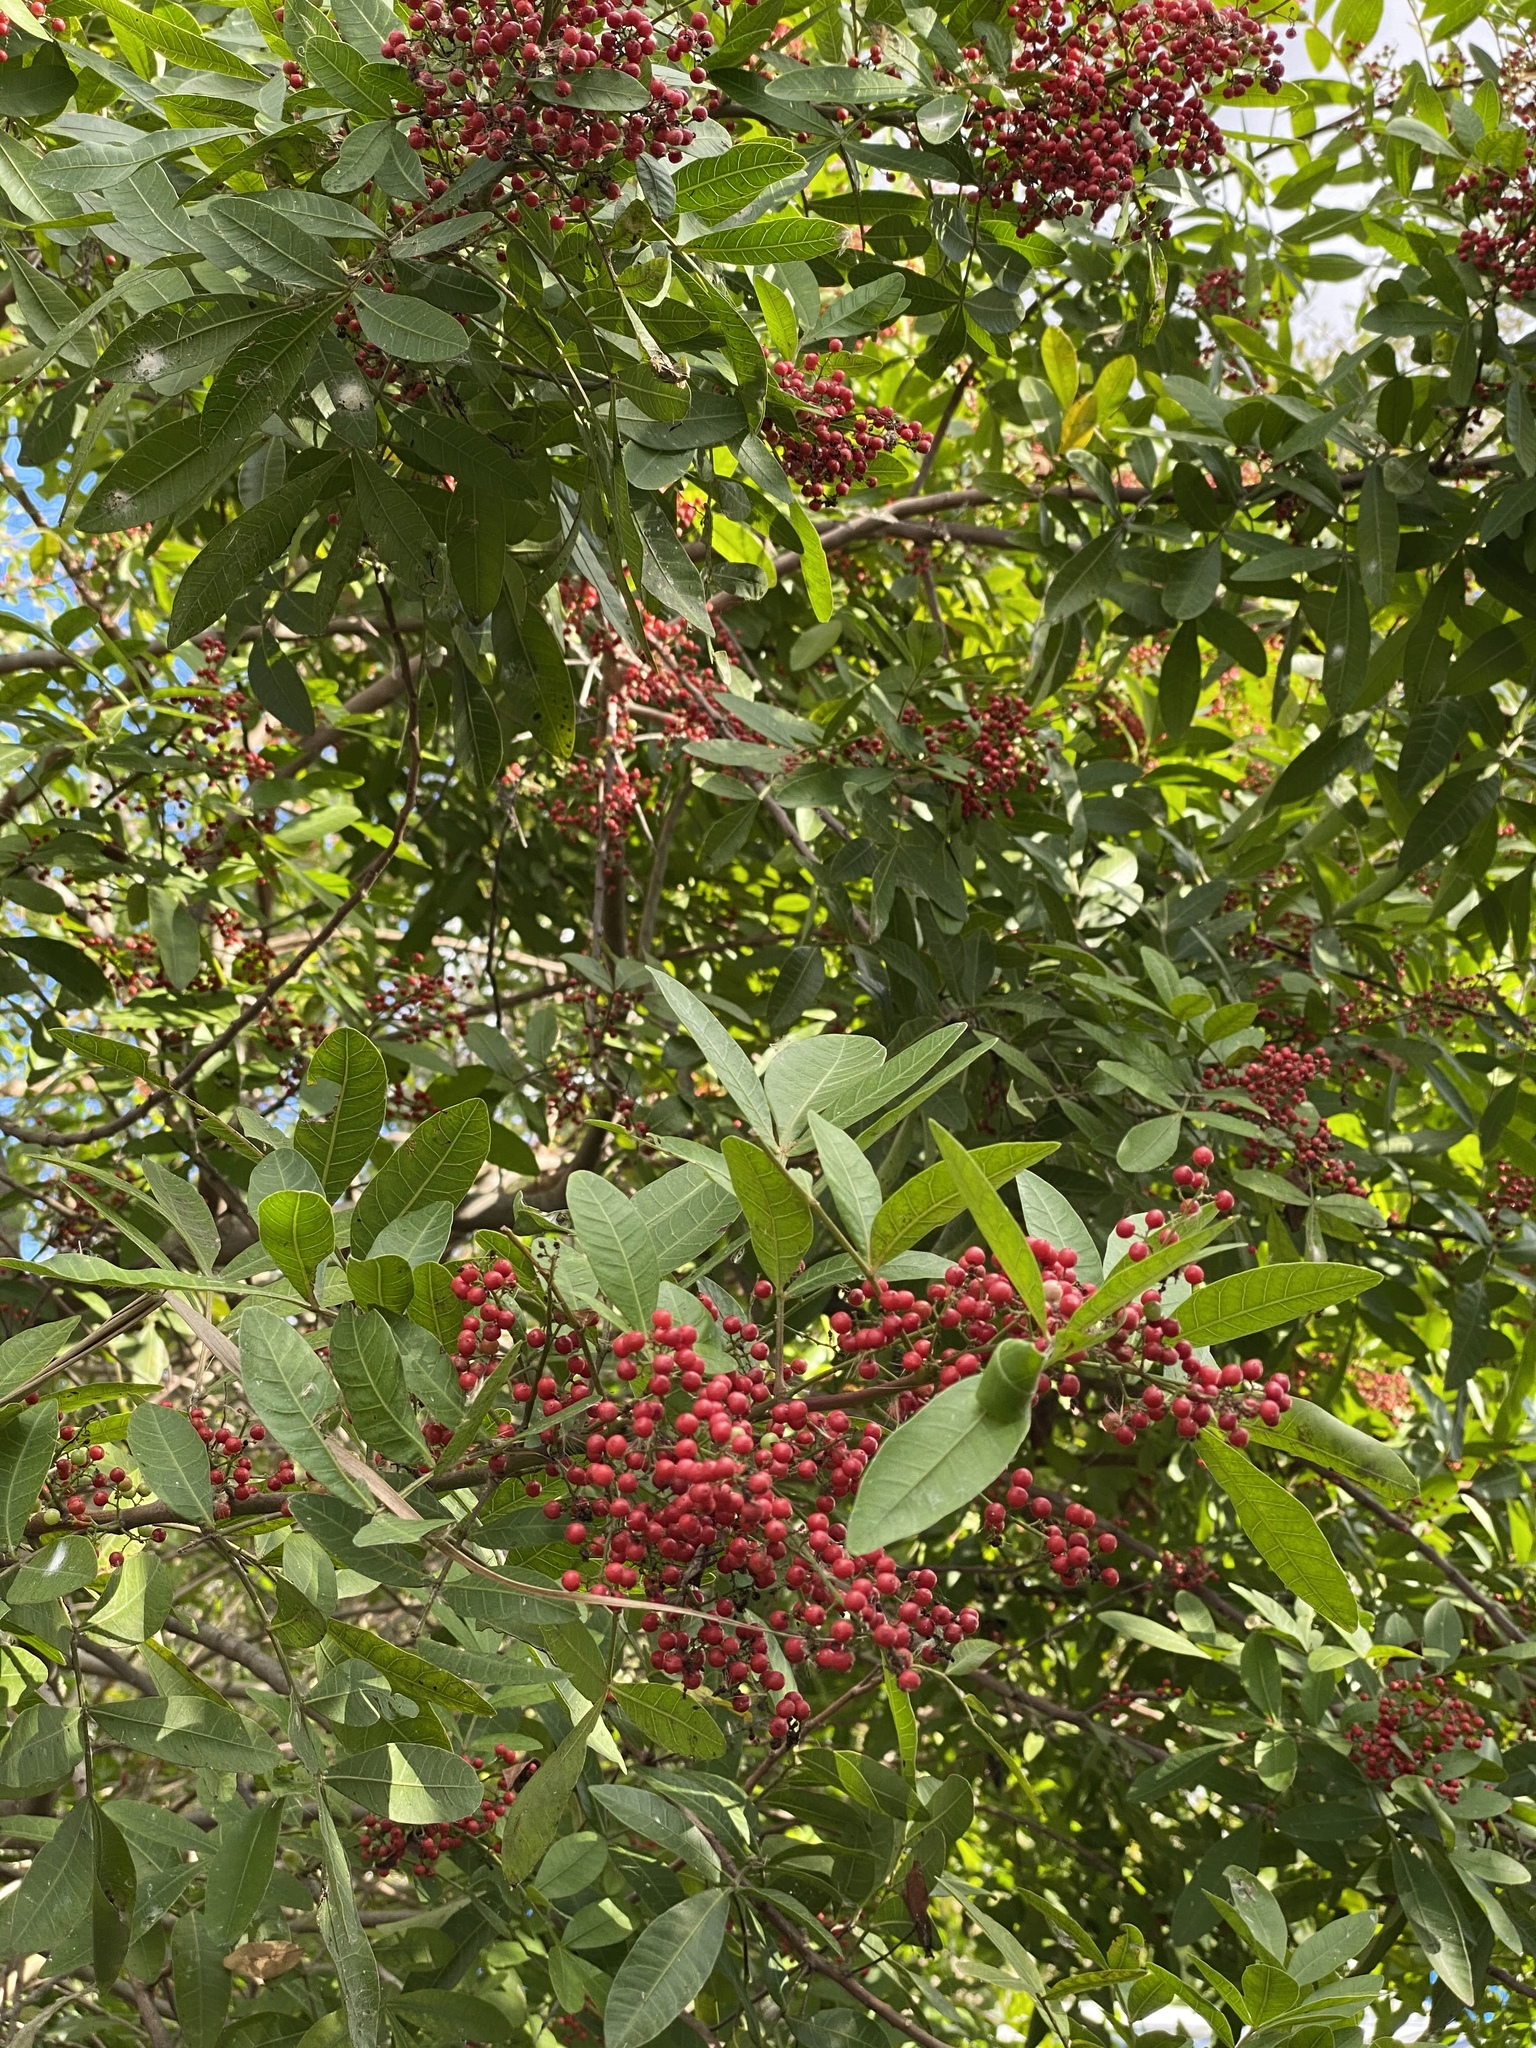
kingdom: Plantae
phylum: Tracheophyta
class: Magnoliopsida
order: Sapindales
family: Anacardiaceae
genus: Schinus
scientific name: Schinus terebinthifolia
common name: Brazilian peppertree
